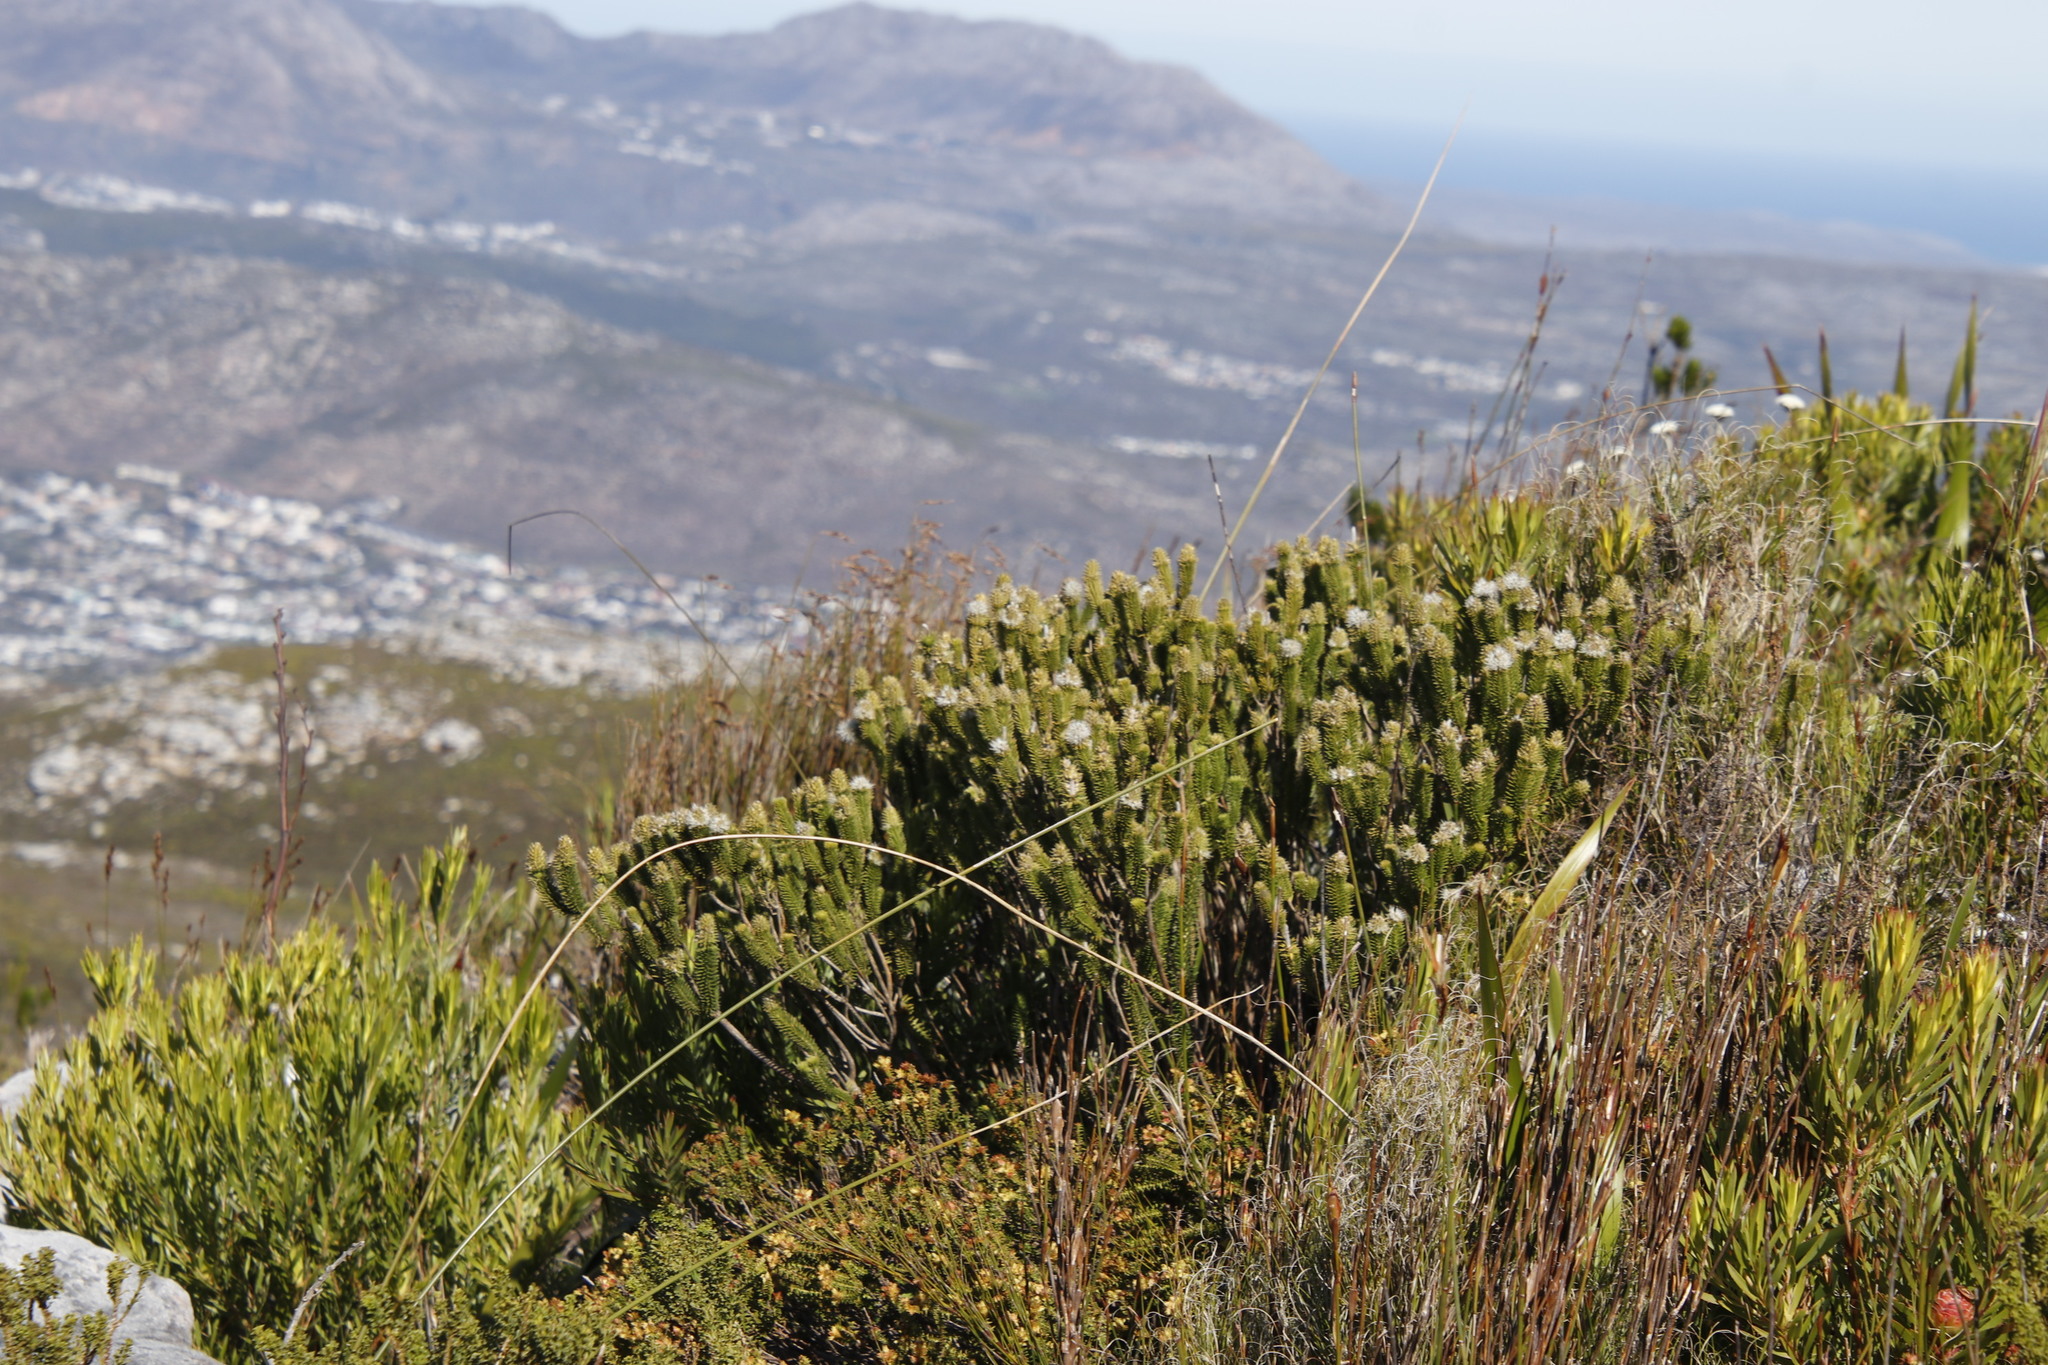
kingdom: Plantae
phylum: Tracheophyta
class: Magnoliopsida
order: Lamiales
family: Stilbaceae
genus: Stilbe
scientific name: Stilbe vestita
